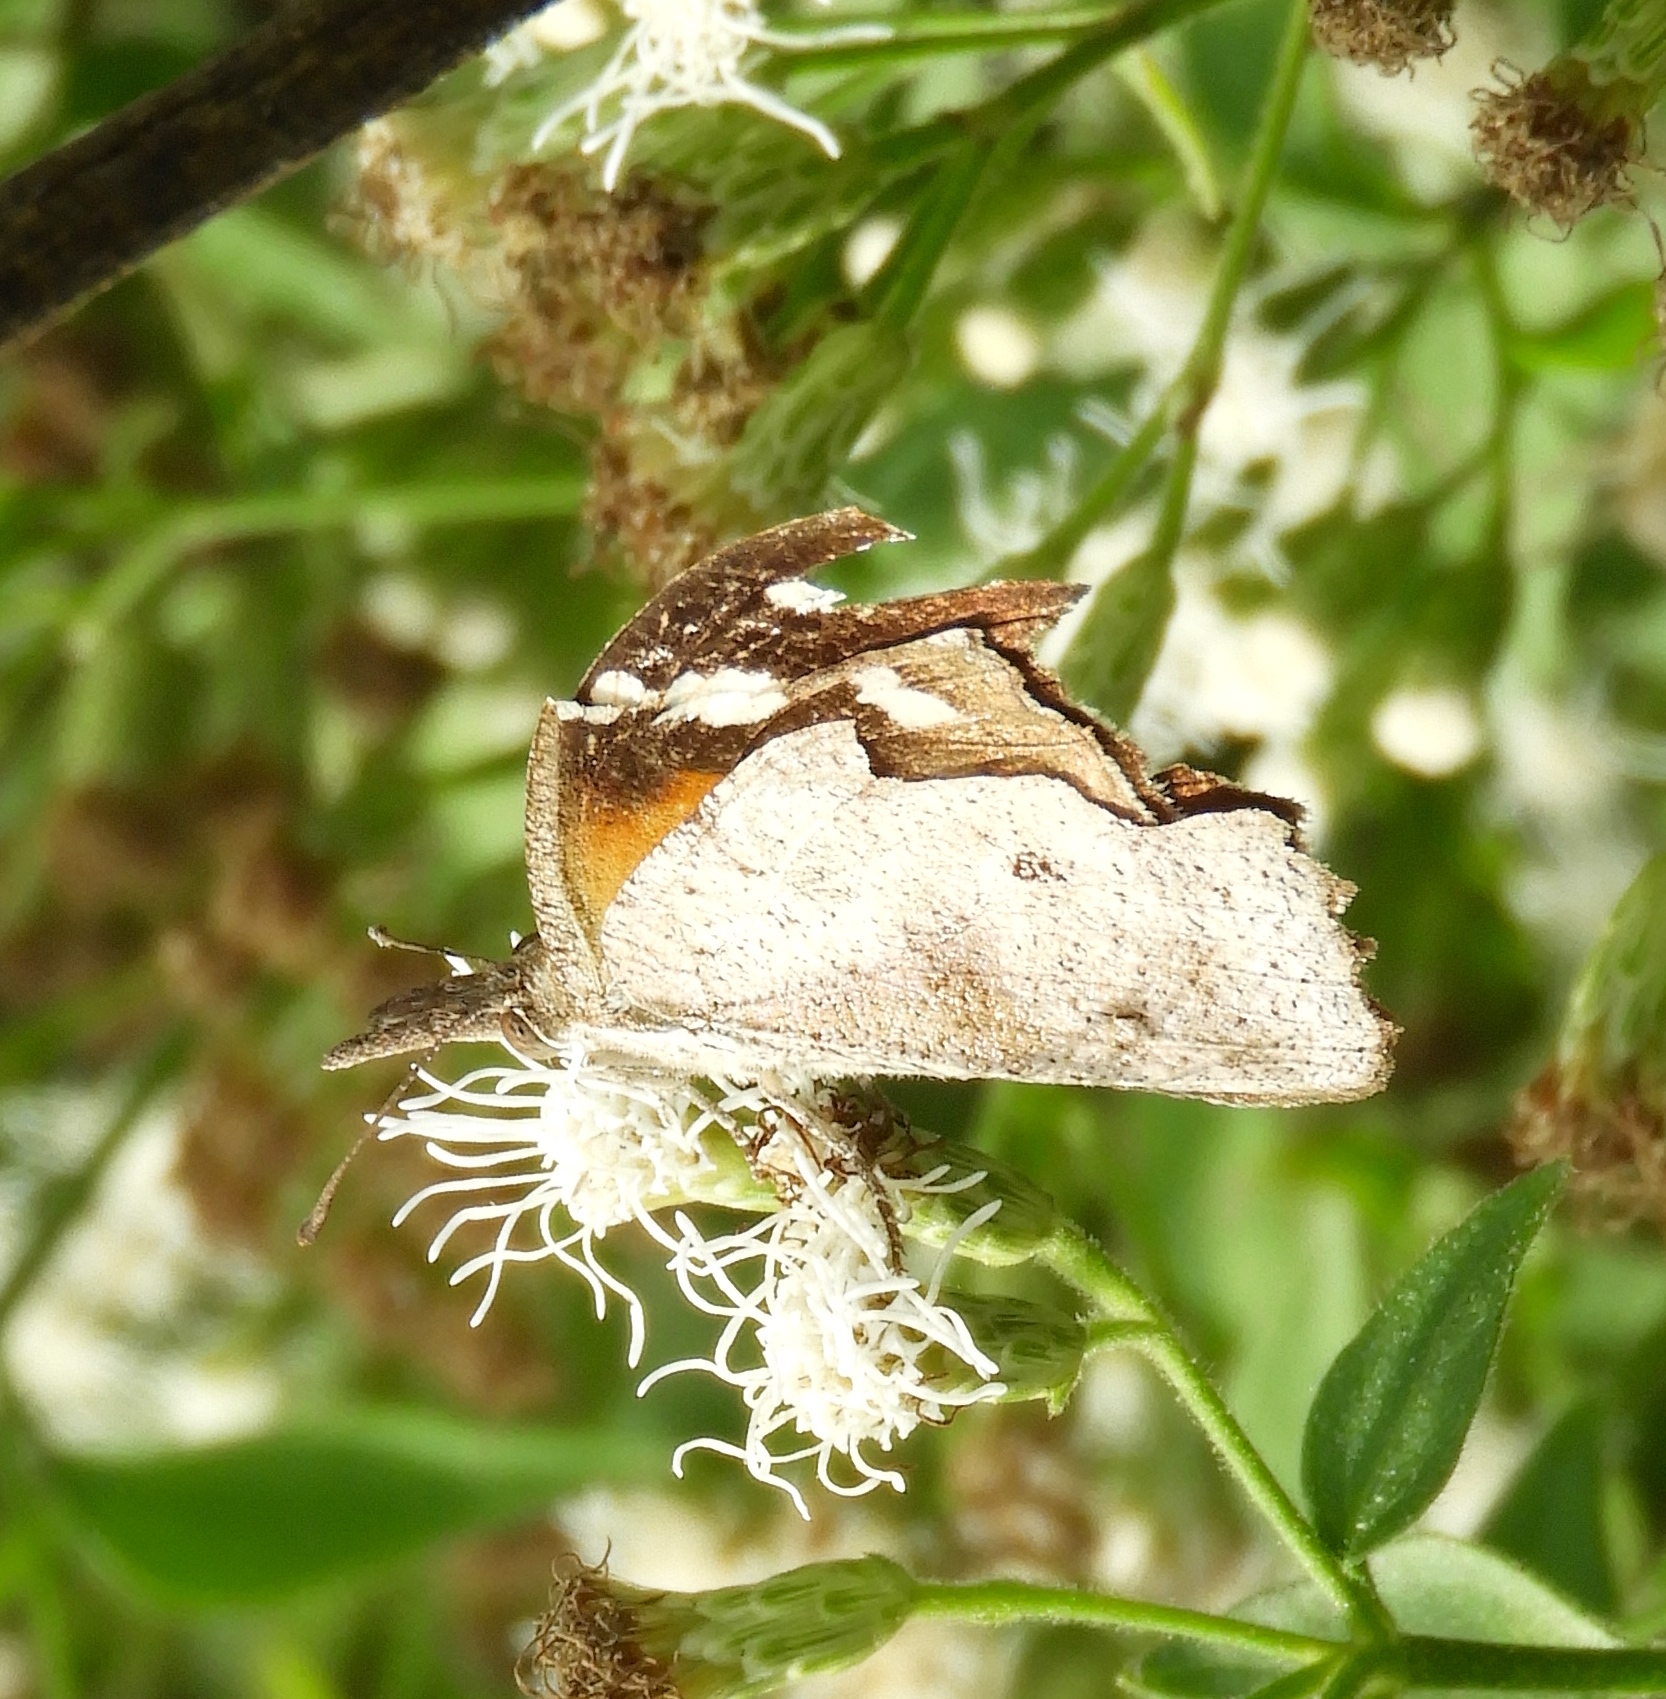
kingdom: Animalia
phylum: Arthropoda
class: Insecta
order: Lepidoptera
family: Nymphalidae
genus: Libytheana
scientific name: Libytheana carinenta
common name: American snout
